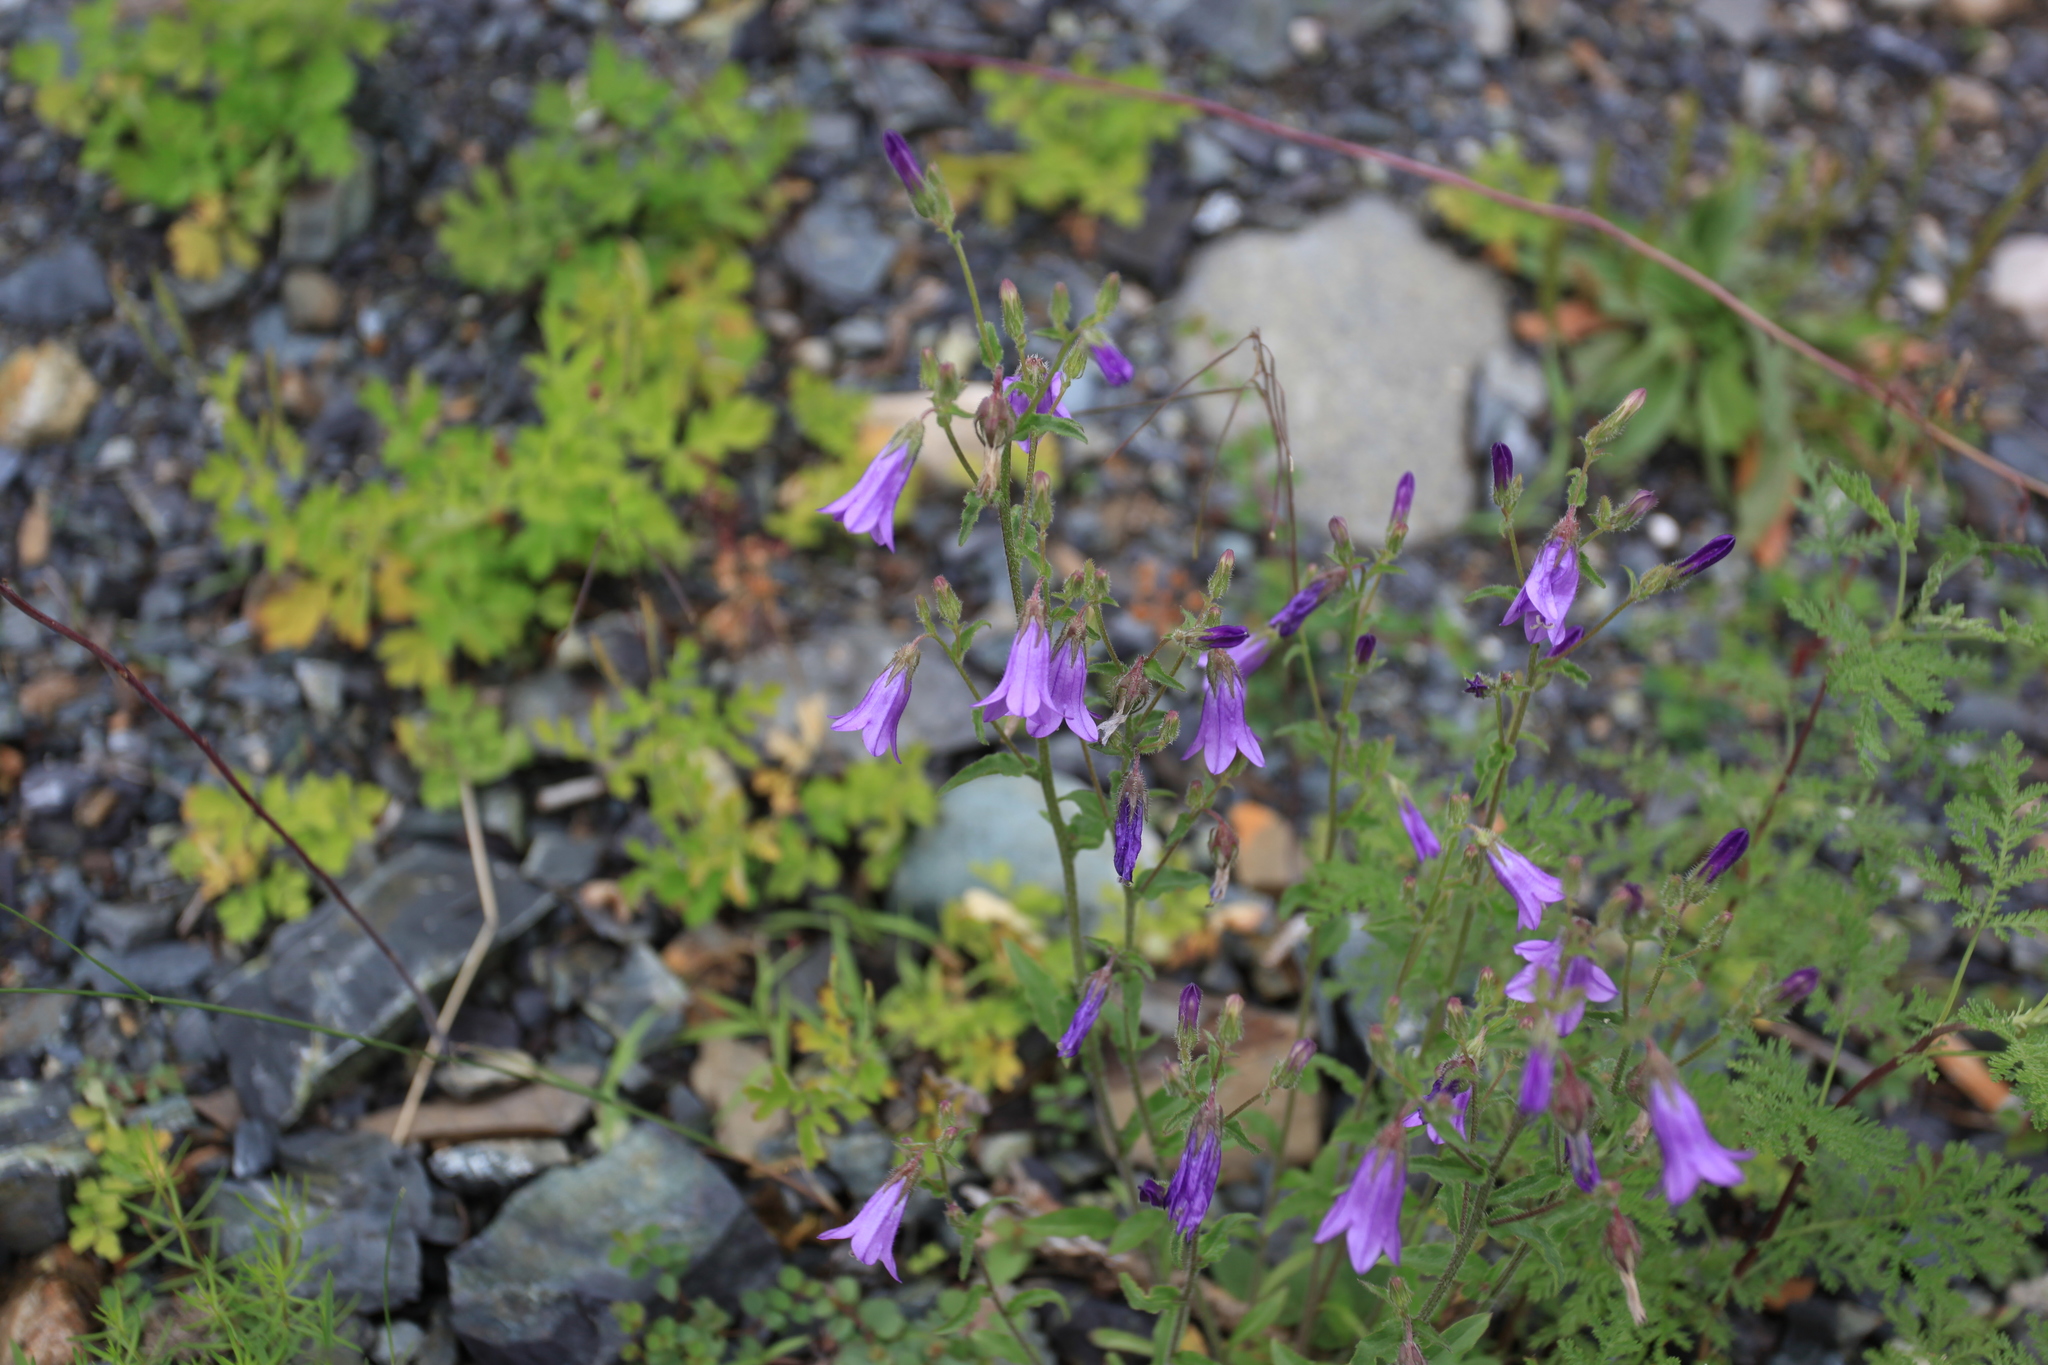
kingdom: Plantae
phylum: Tracheophyta
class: Magnoliopsida
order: Asterales
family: Campanulaceae
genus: Campanula
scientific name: Campanula sibirica
